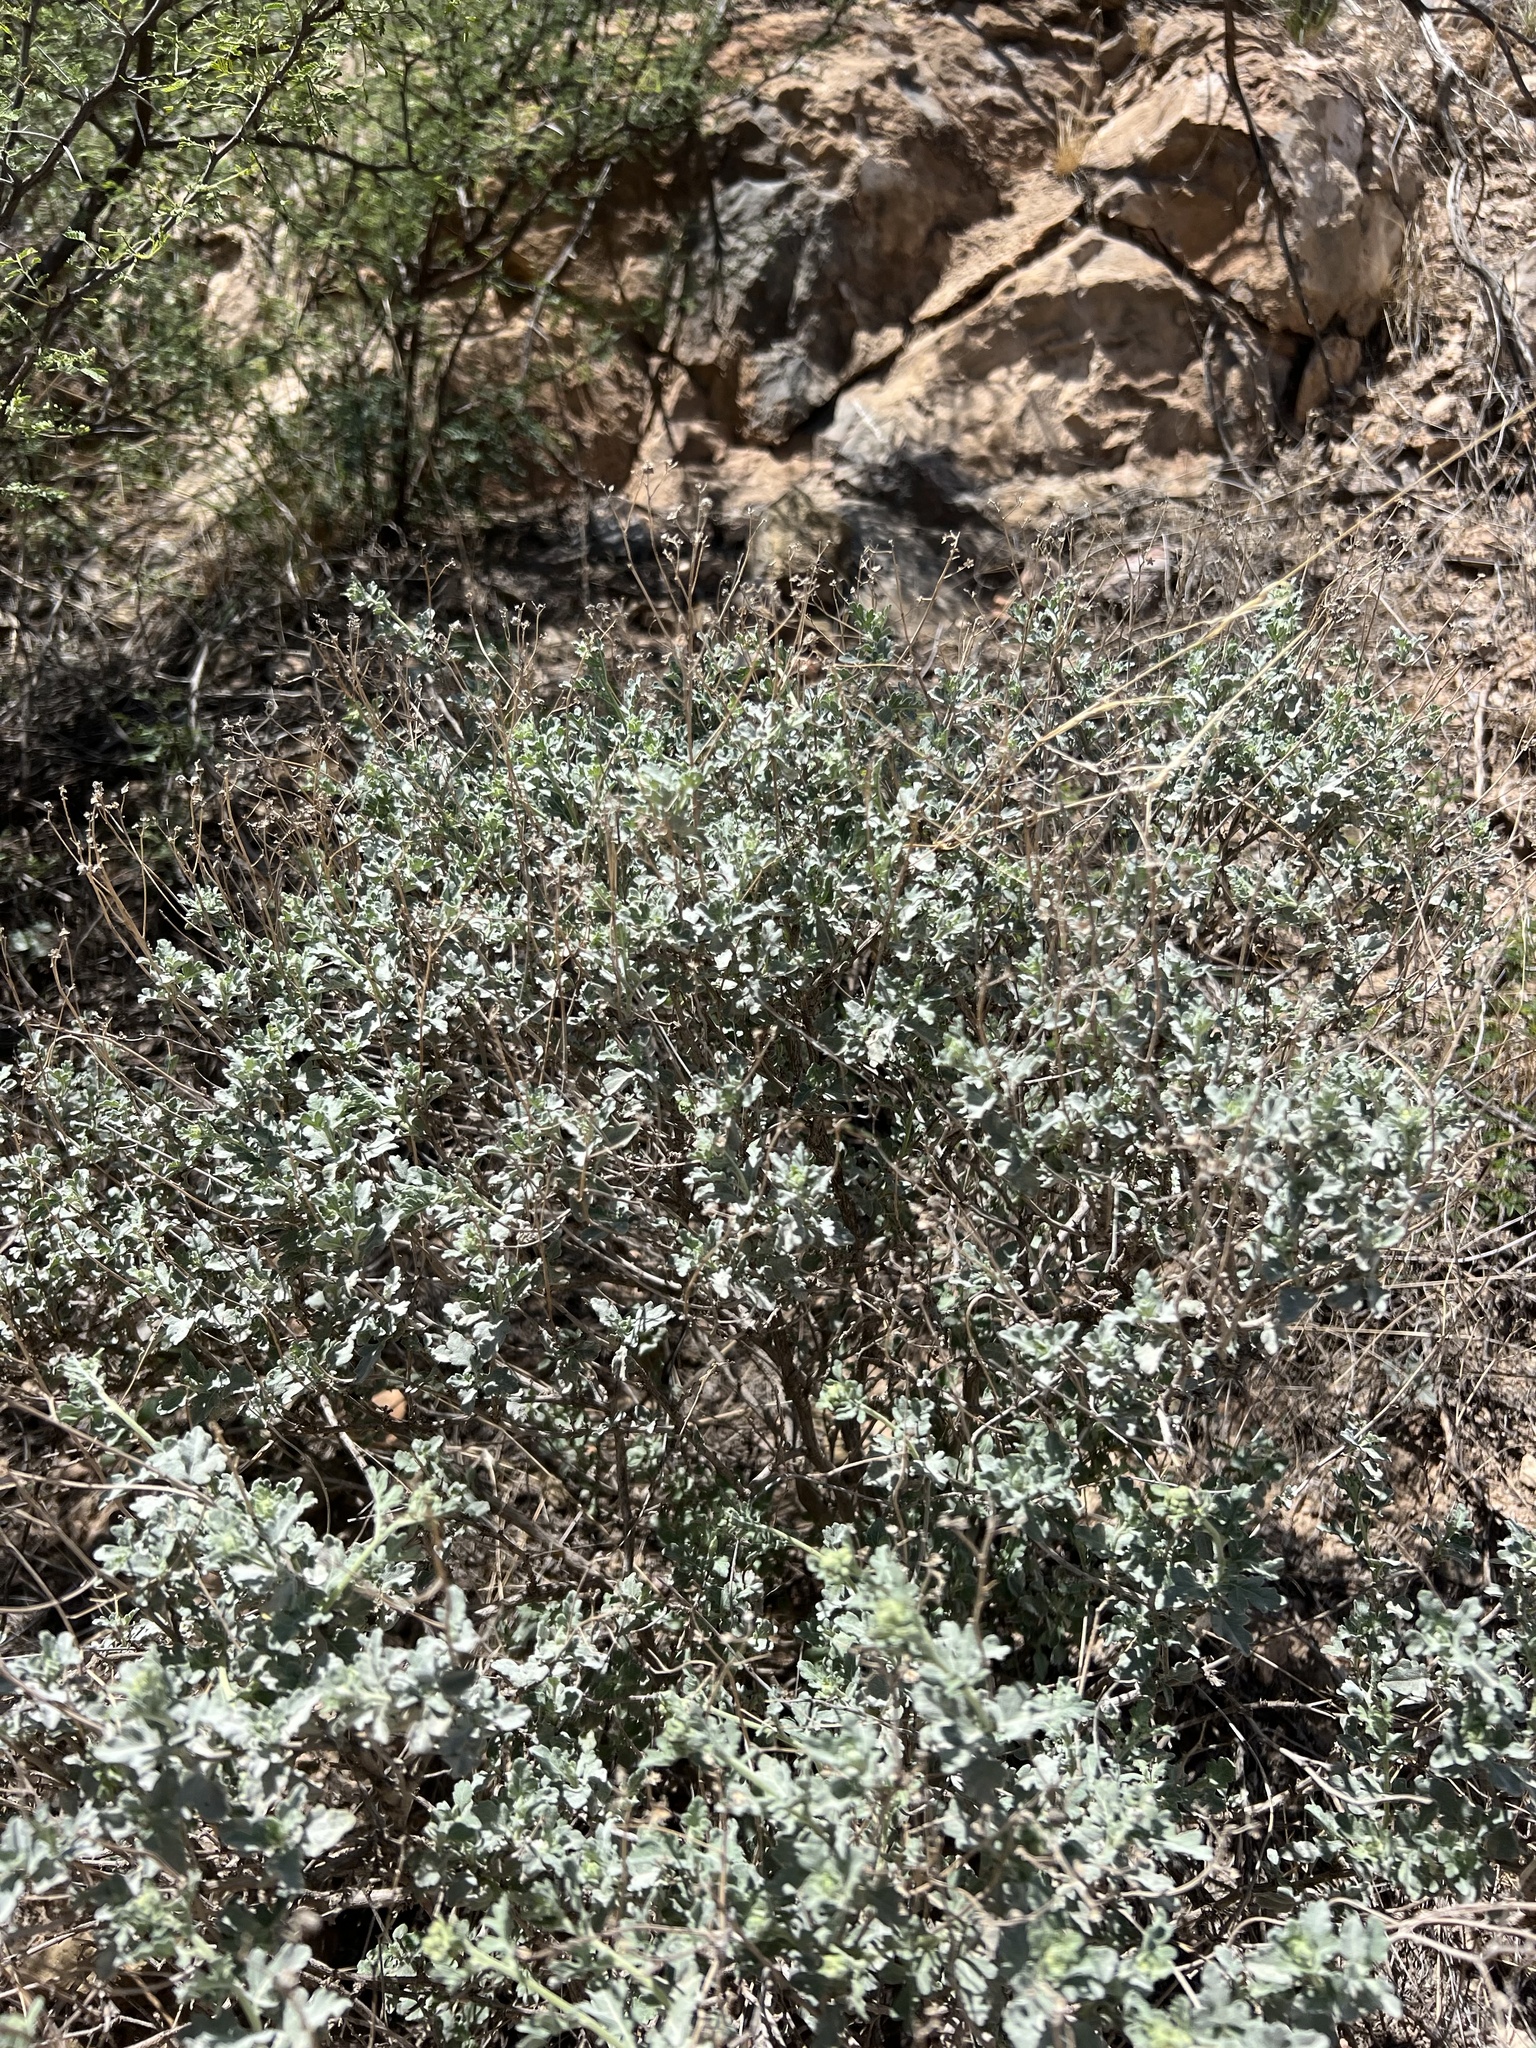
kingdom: Plantae
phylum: Tracheophyta
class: Magnoliopsida
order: Asterales
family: Asteraceae
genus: Parthenium
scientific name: Parthenium incanum
